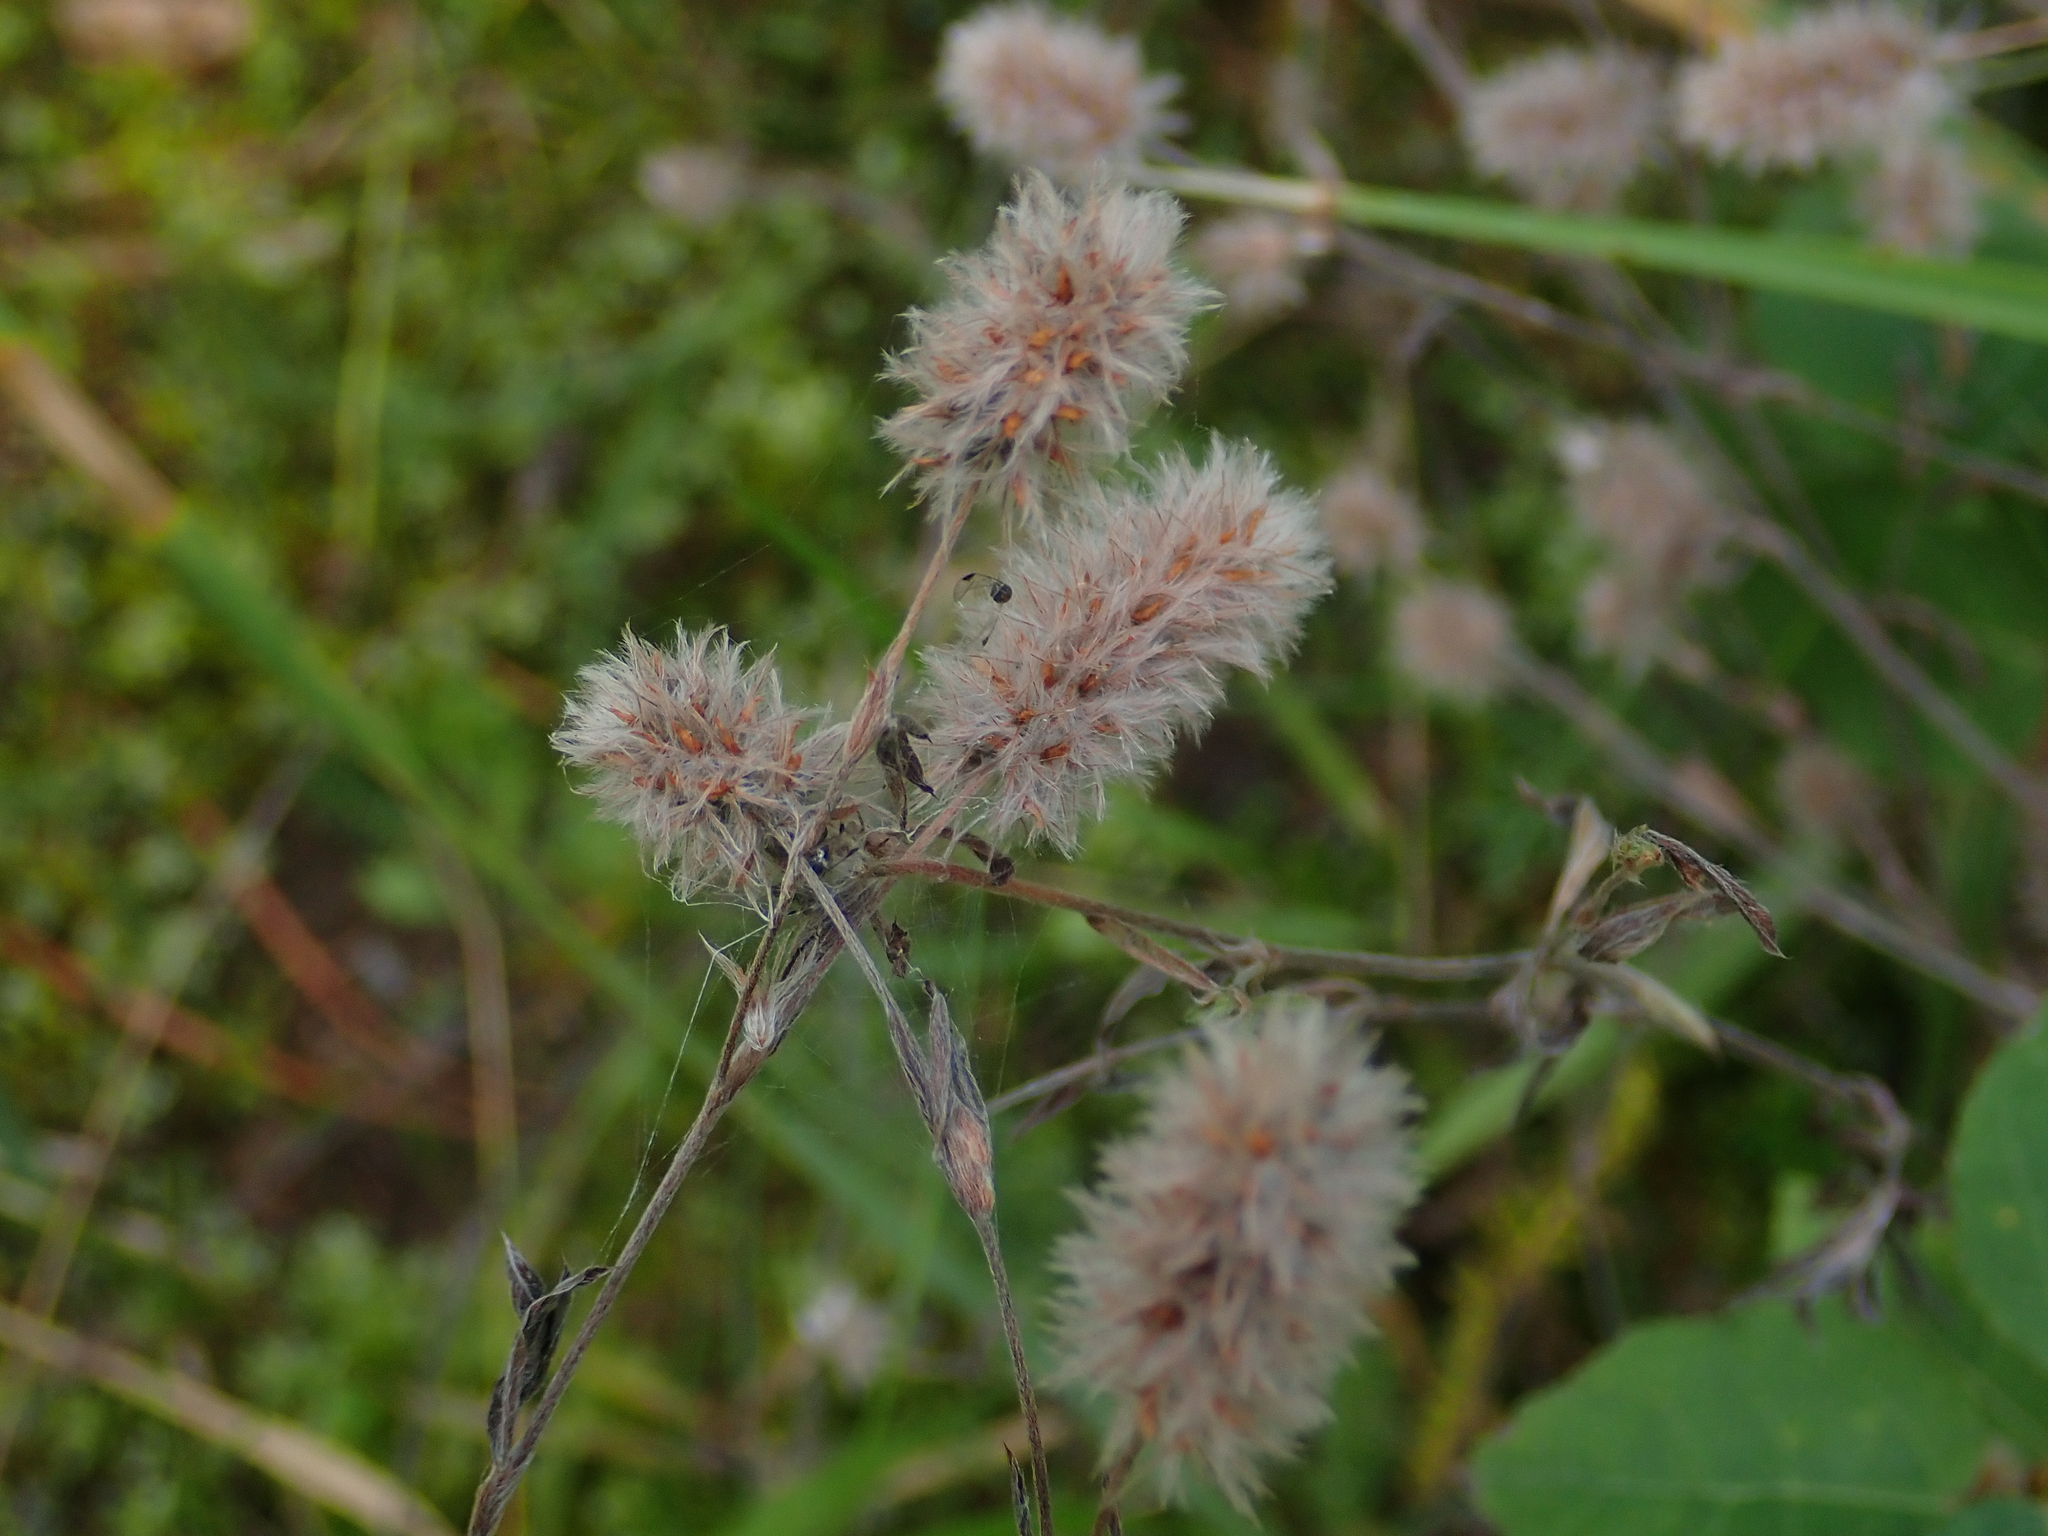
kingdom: Plantae
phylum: Tracheophyta
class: Magnoliopsida
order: Fabales
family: Fabaceae
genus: Trifolium
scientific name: Trifolium arvense
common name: Hare's-foot clover
